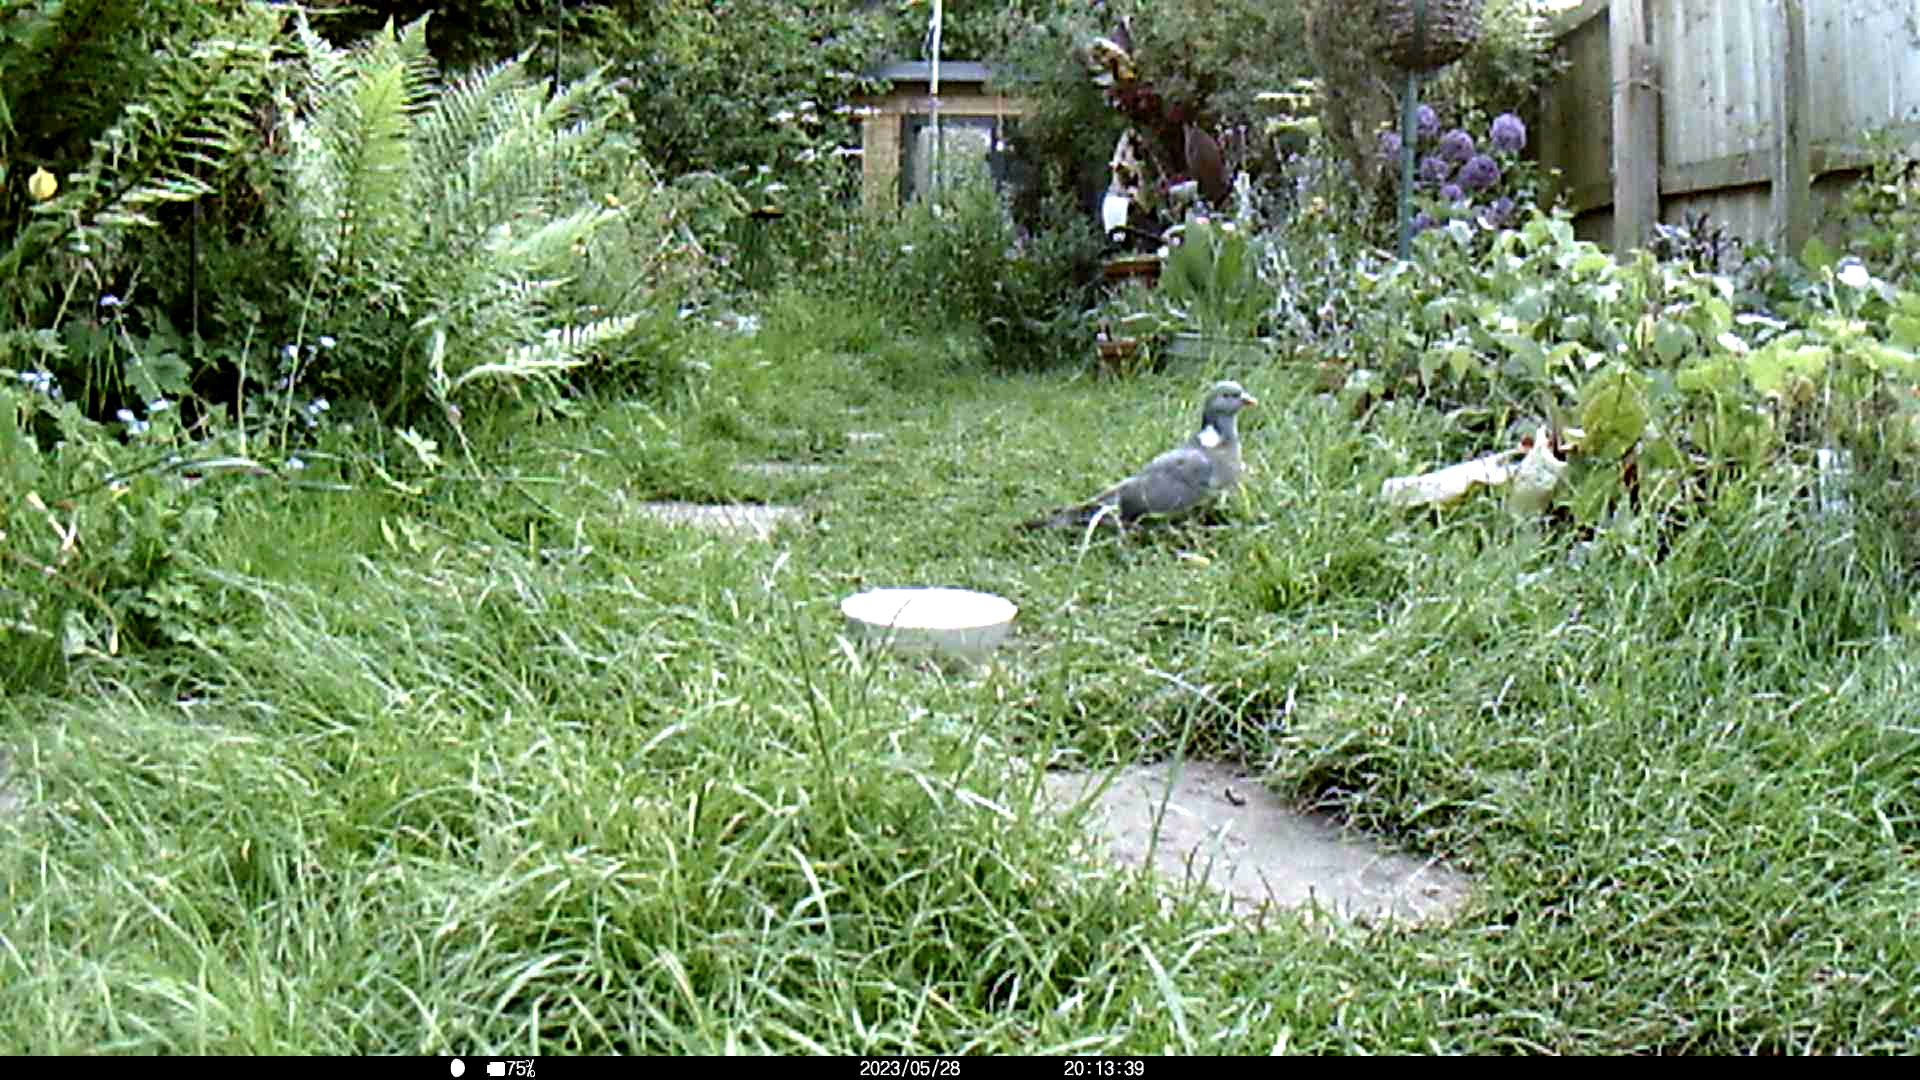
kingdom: Animalia
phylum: Chordata
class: Aves
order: Columbiformes
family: Columbidae
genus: Columba
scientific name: Columba palumbus
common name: Common wood pigeon
